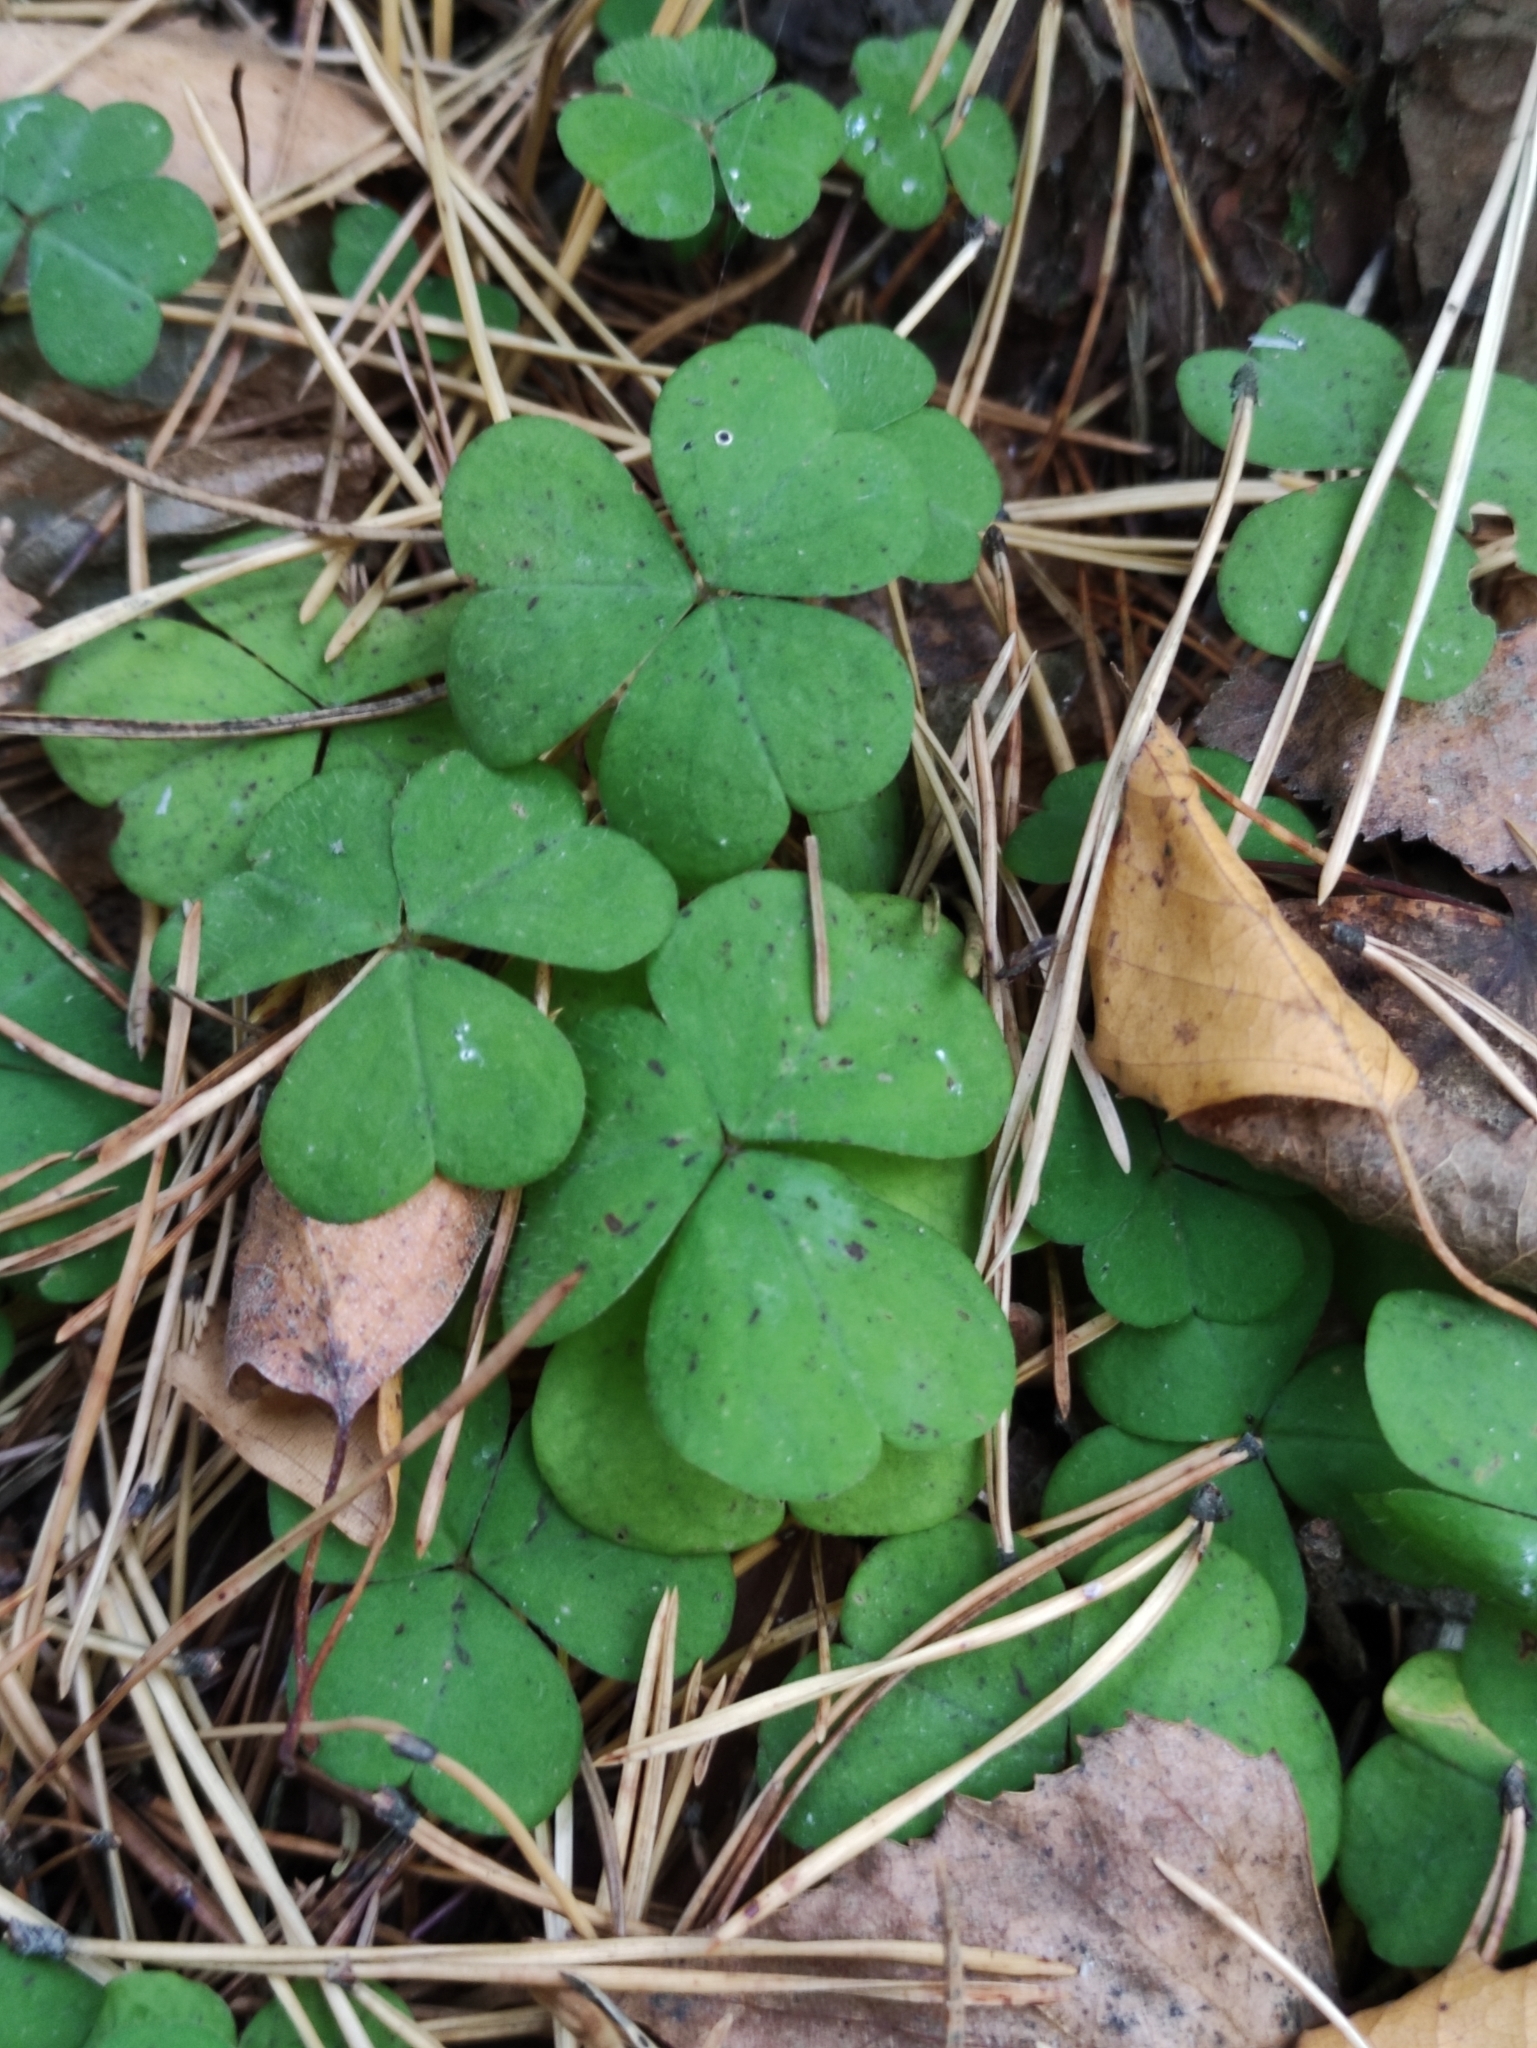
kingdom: Plantae
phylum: Tracheophyta
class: Magnoliopsida
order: Oxalidales
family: Oxalidaceae
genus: Oxalis
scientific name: Oxalis acetosella
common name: Wood-sorrel
